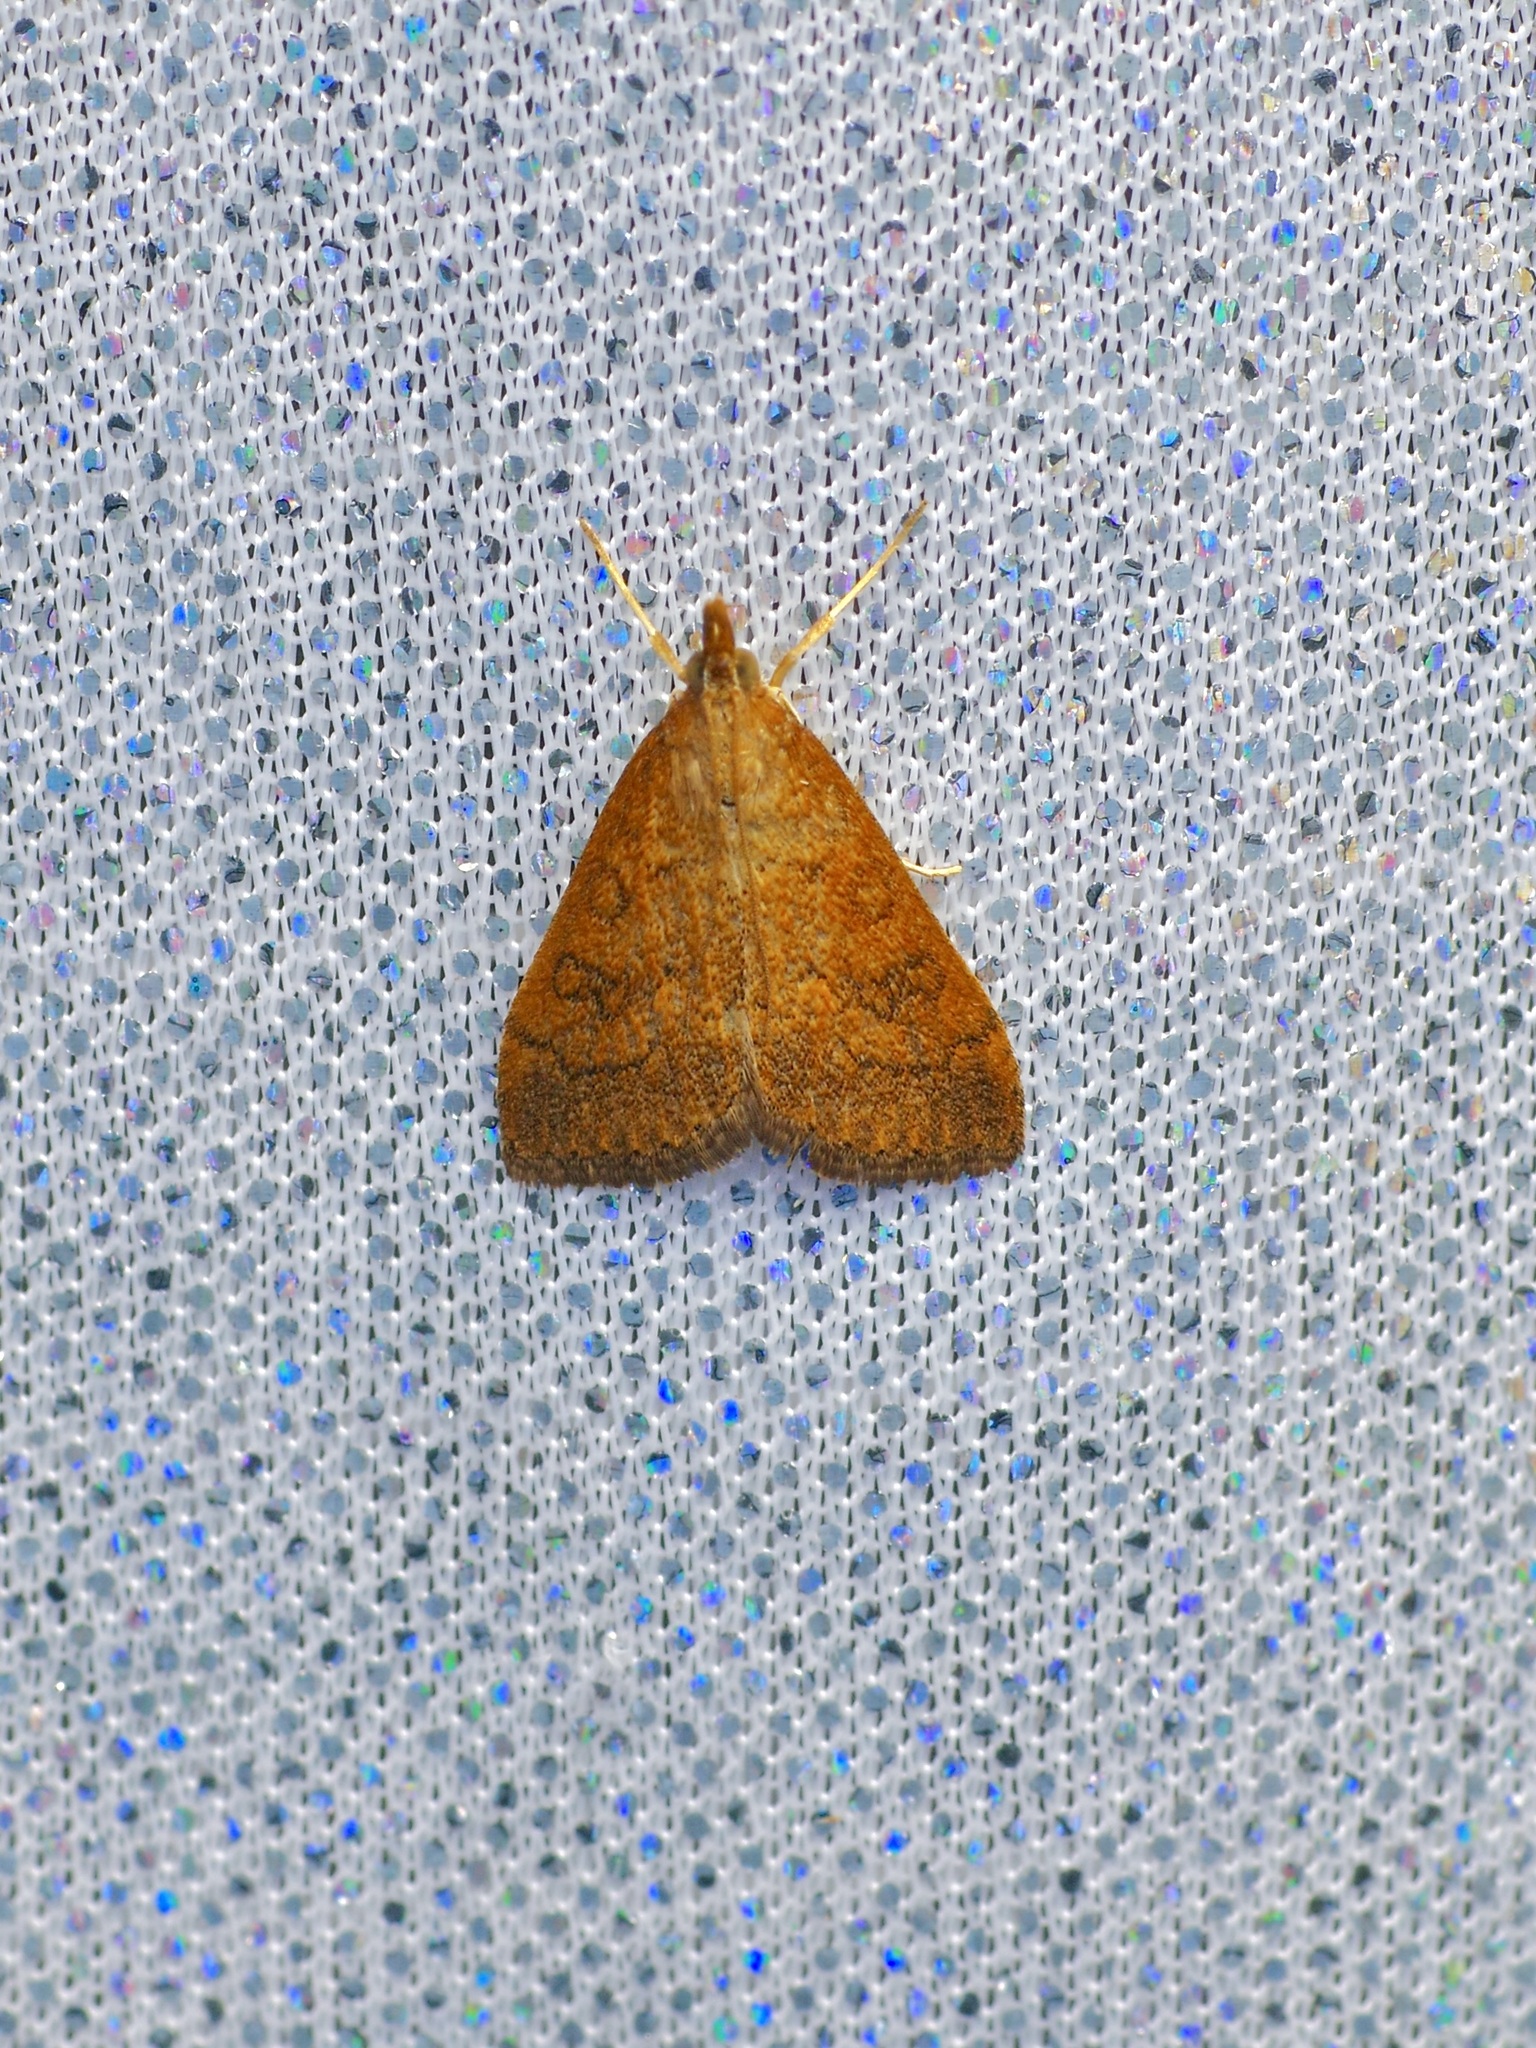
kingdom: Animalia
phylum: Arthropoda
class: Insecta
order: Lepidoptera
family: Crambidae
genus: Udea
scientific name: Udea rubigalis
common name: Celery leaftier moth
